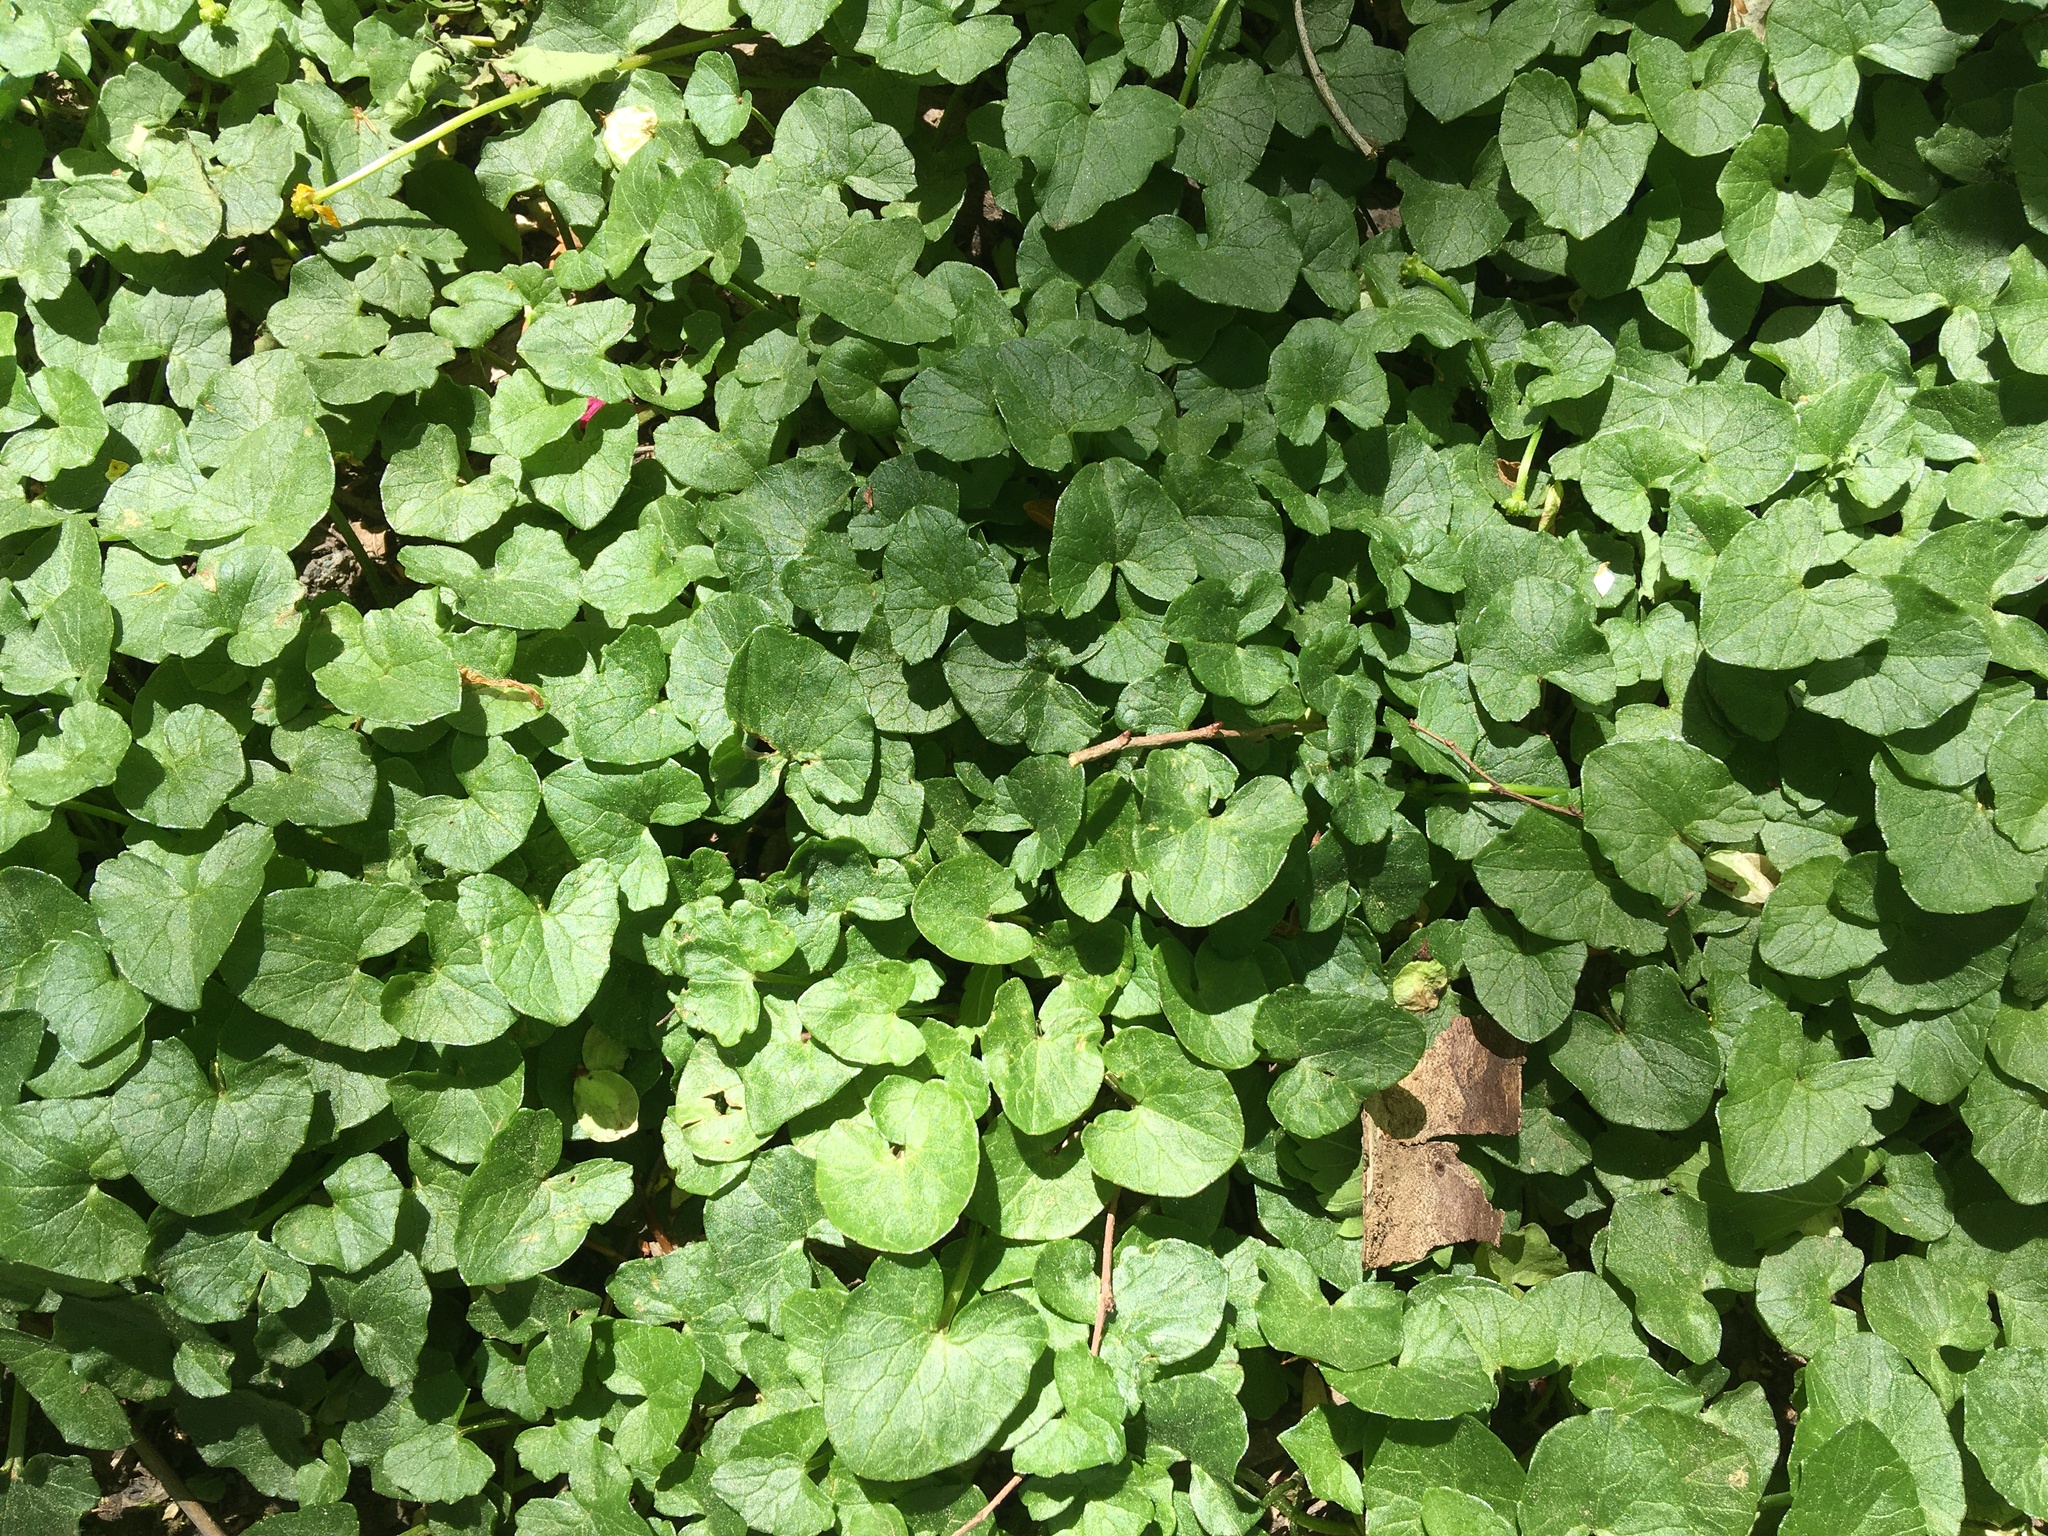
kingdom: Plantae
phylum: Tracheophyta
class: Magnoliopsida
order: Ranunculales
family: Ranunculaceae
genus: Ficaria
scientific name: Ficaria verna
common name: Lesser celandine
